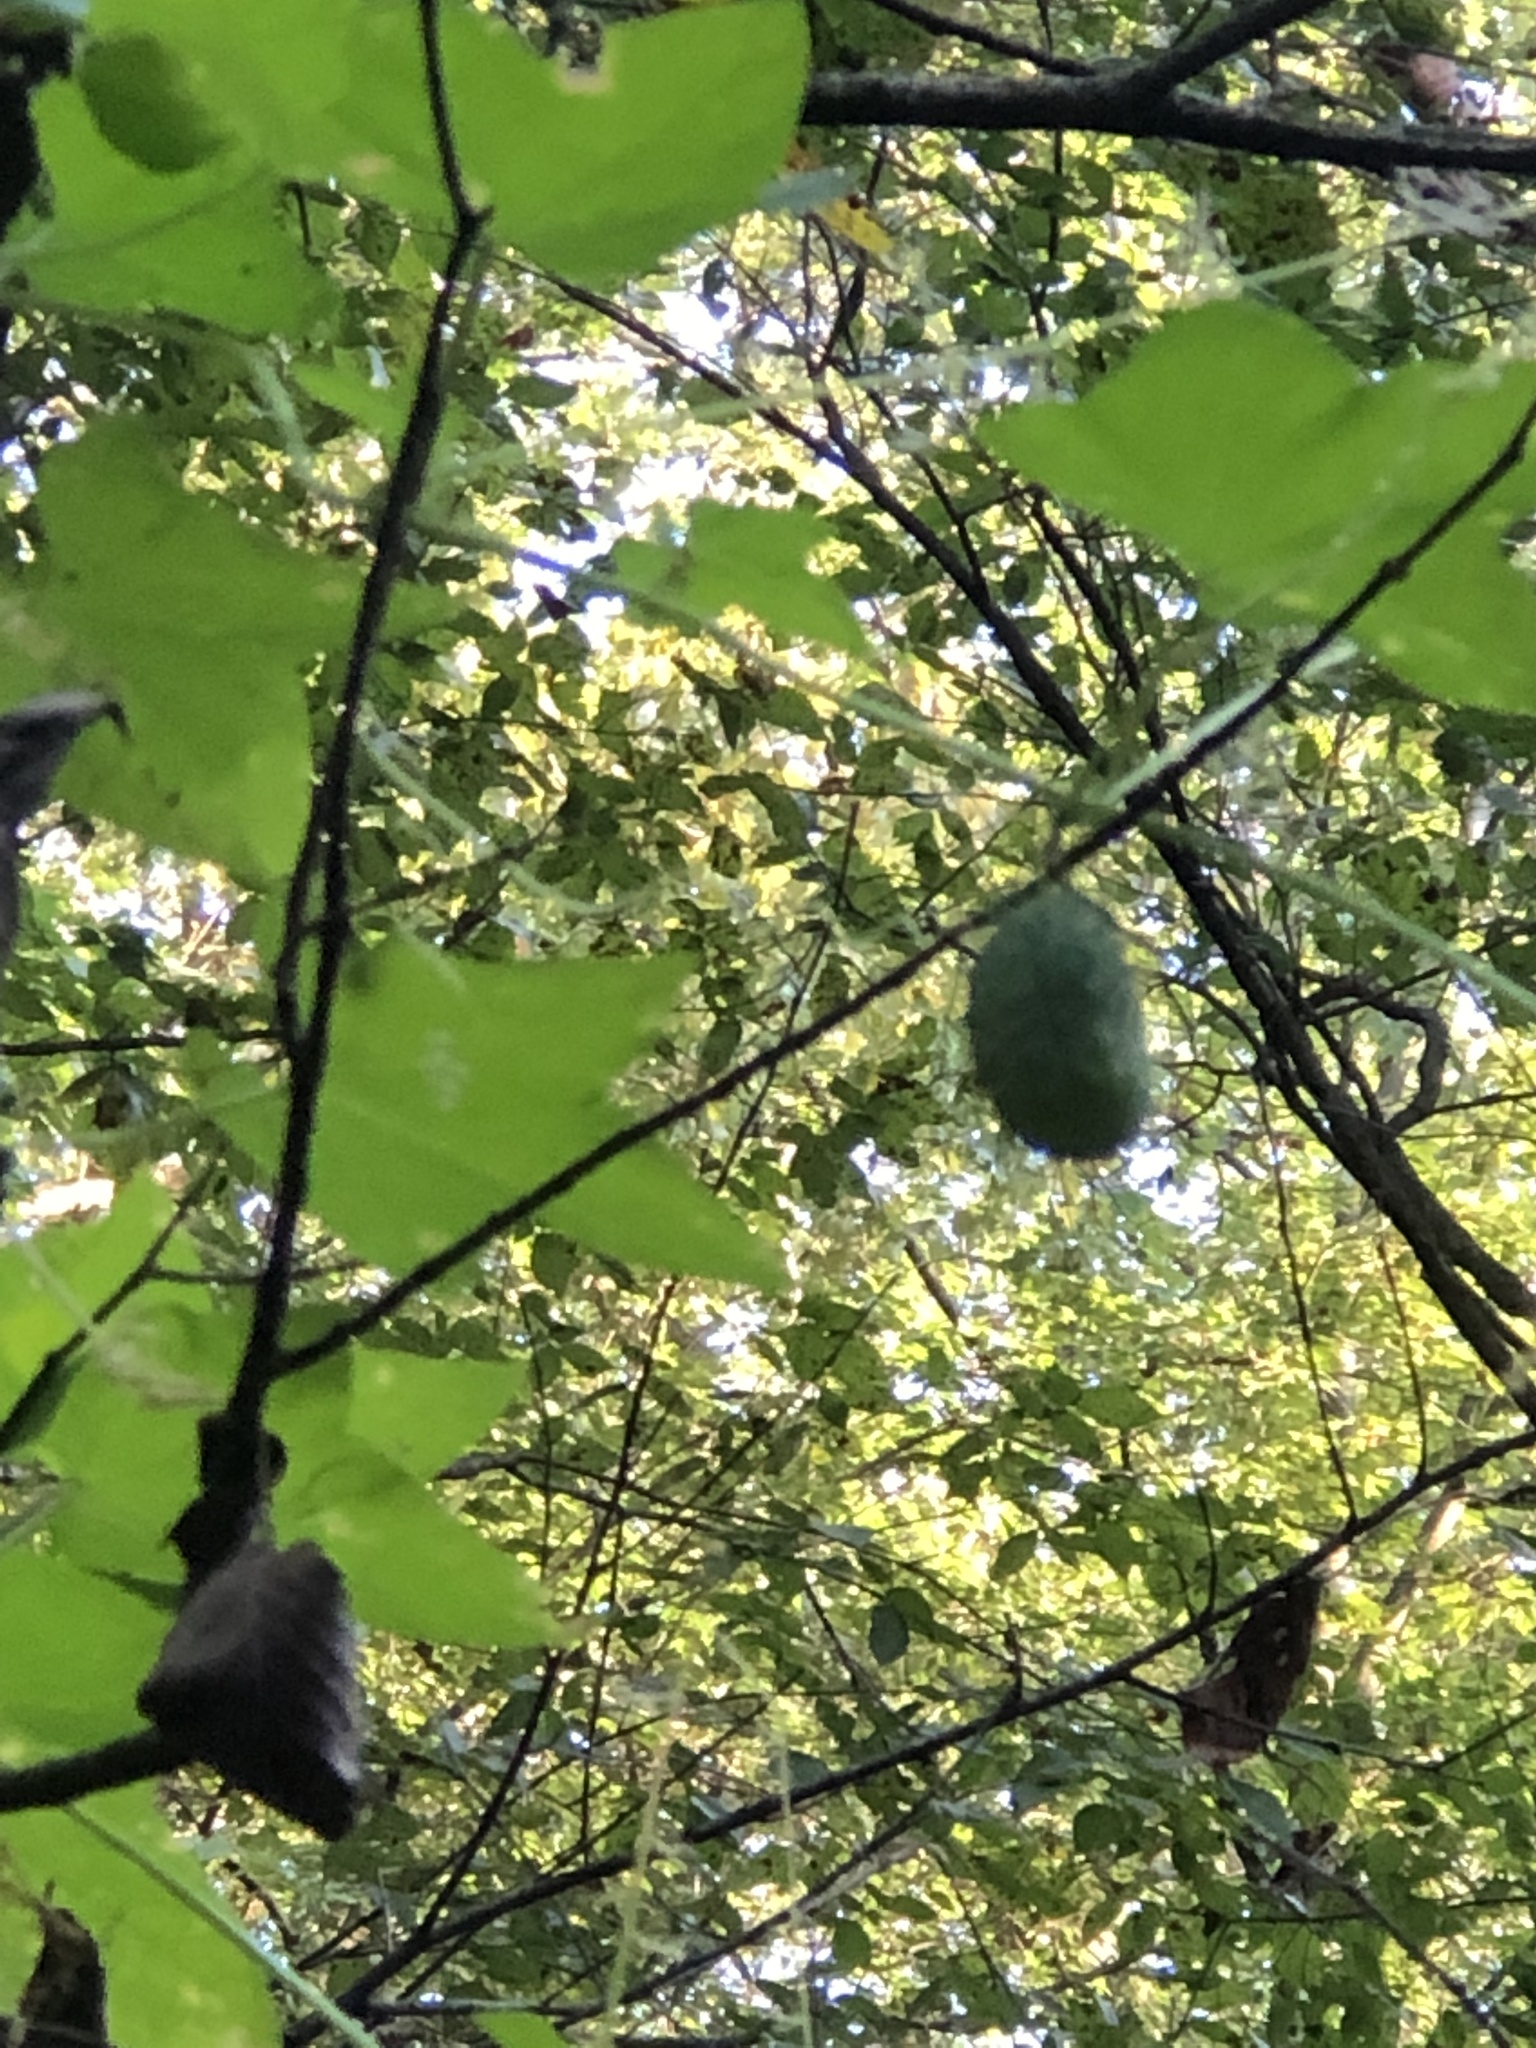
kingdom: Plantae
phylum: Tracheophyta
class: Magnoliopsida
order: Cucurbitales
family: Cucurbitaceae
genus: Echinocystis
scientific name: Echinocystis lobata
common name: Wild cucumber
